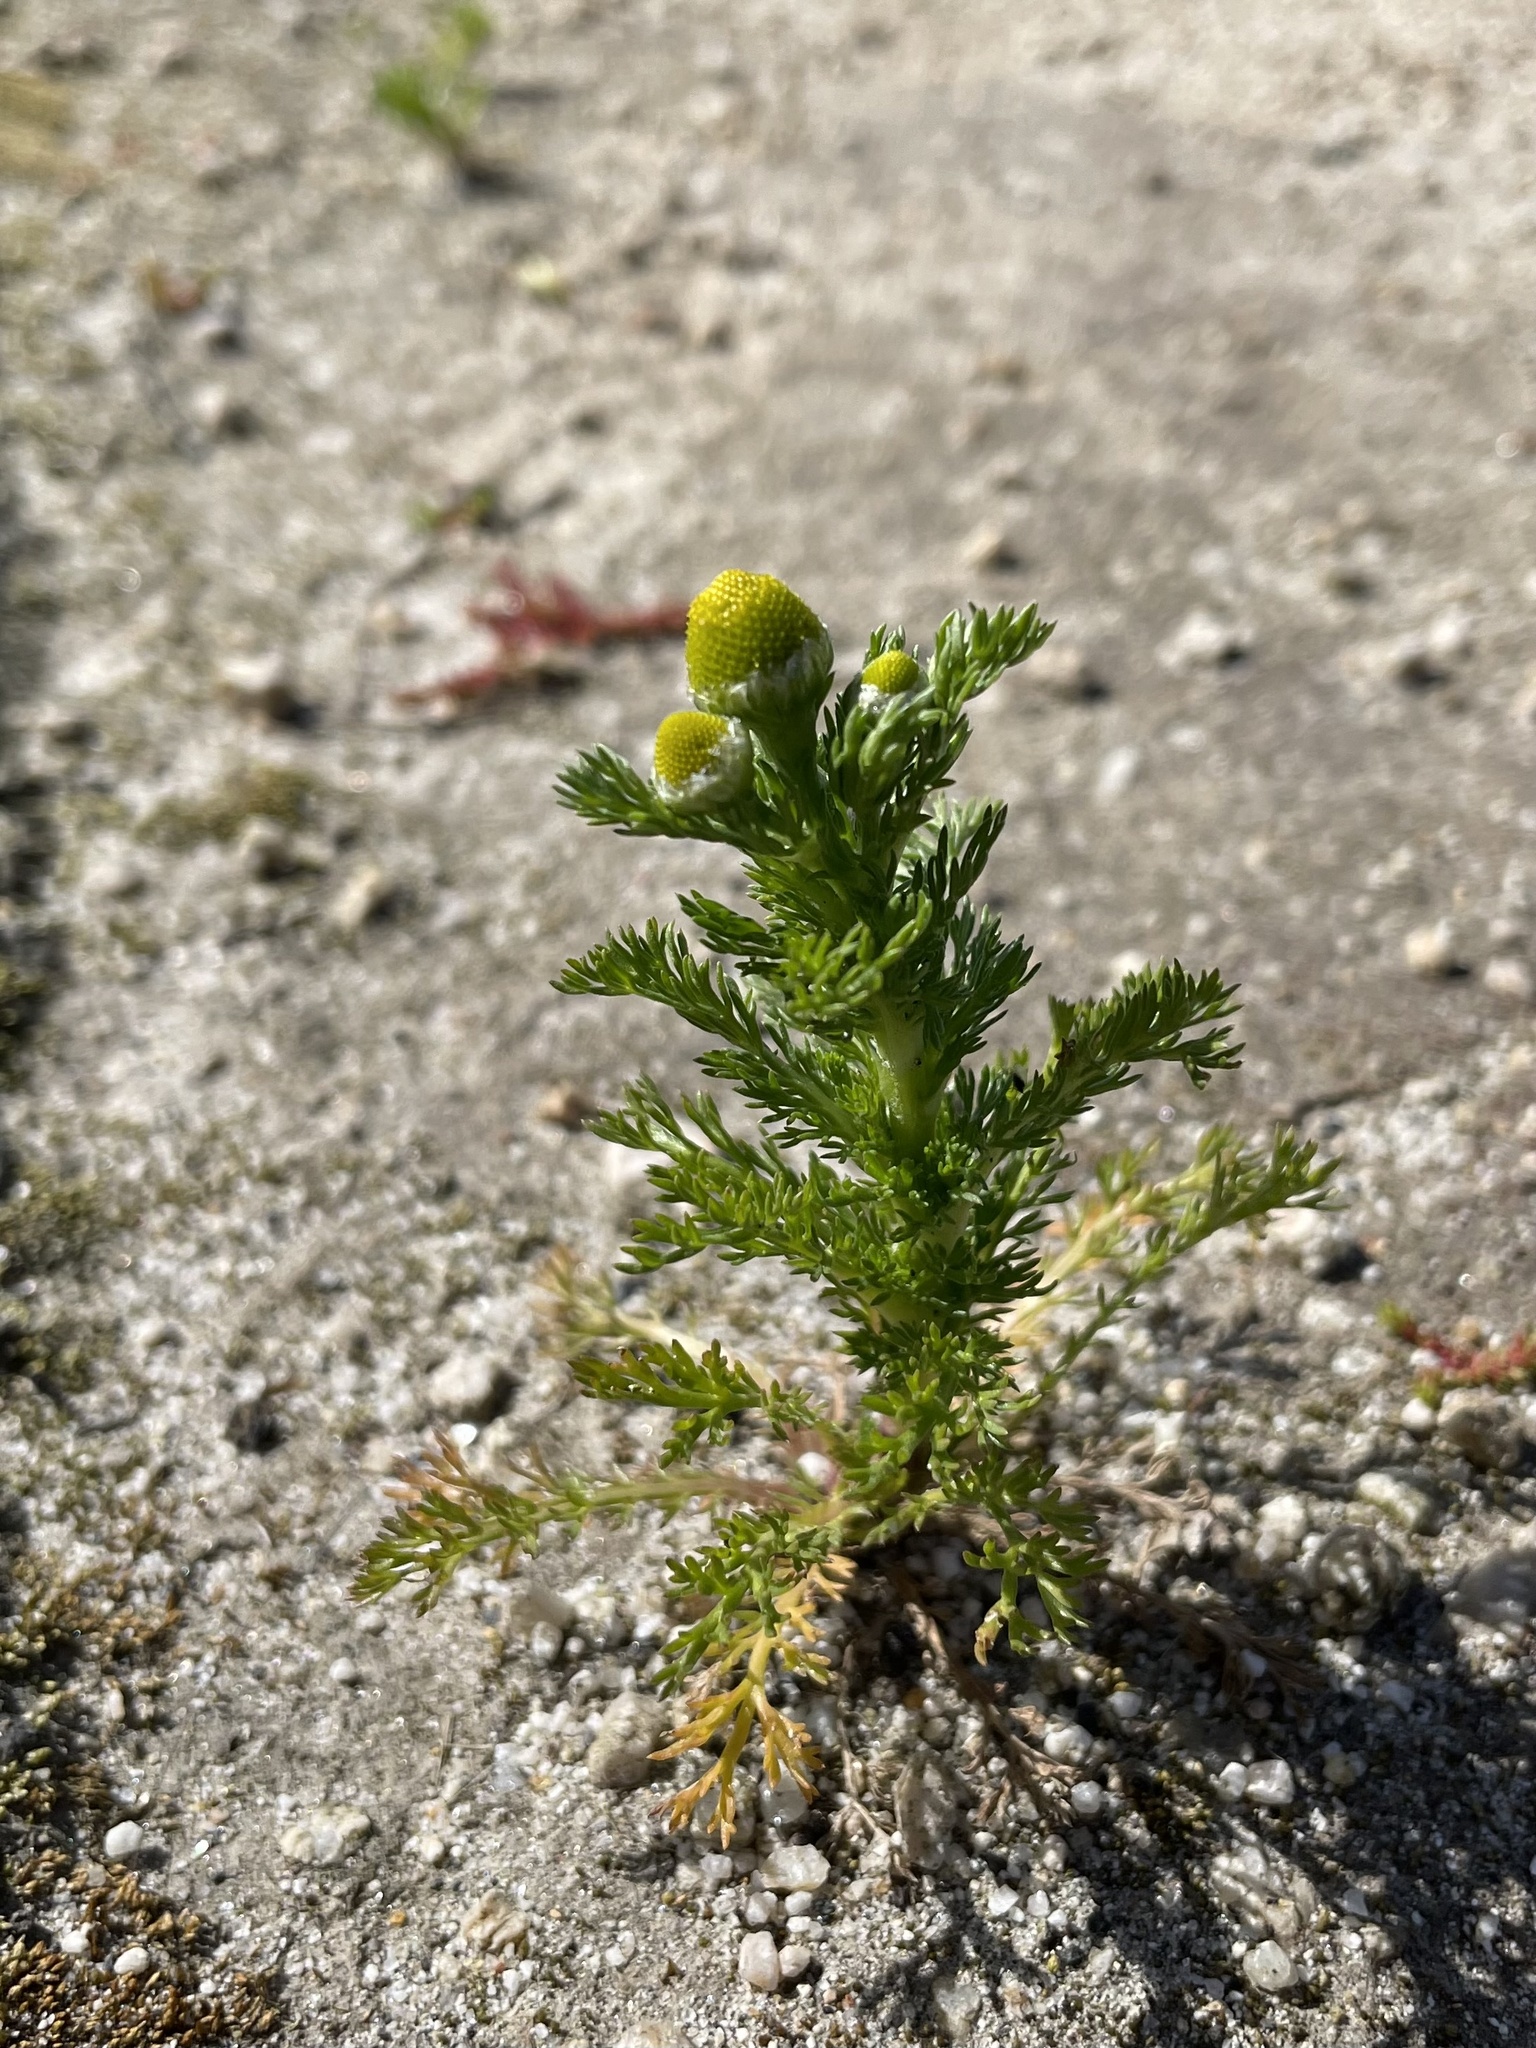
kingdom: Plantae
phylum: Tracheophyta
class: Magnoliopsida
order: Asterales
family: Asteraceae
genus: Matricaria
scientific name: Matricaria discoidea
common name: Disc mayweed
